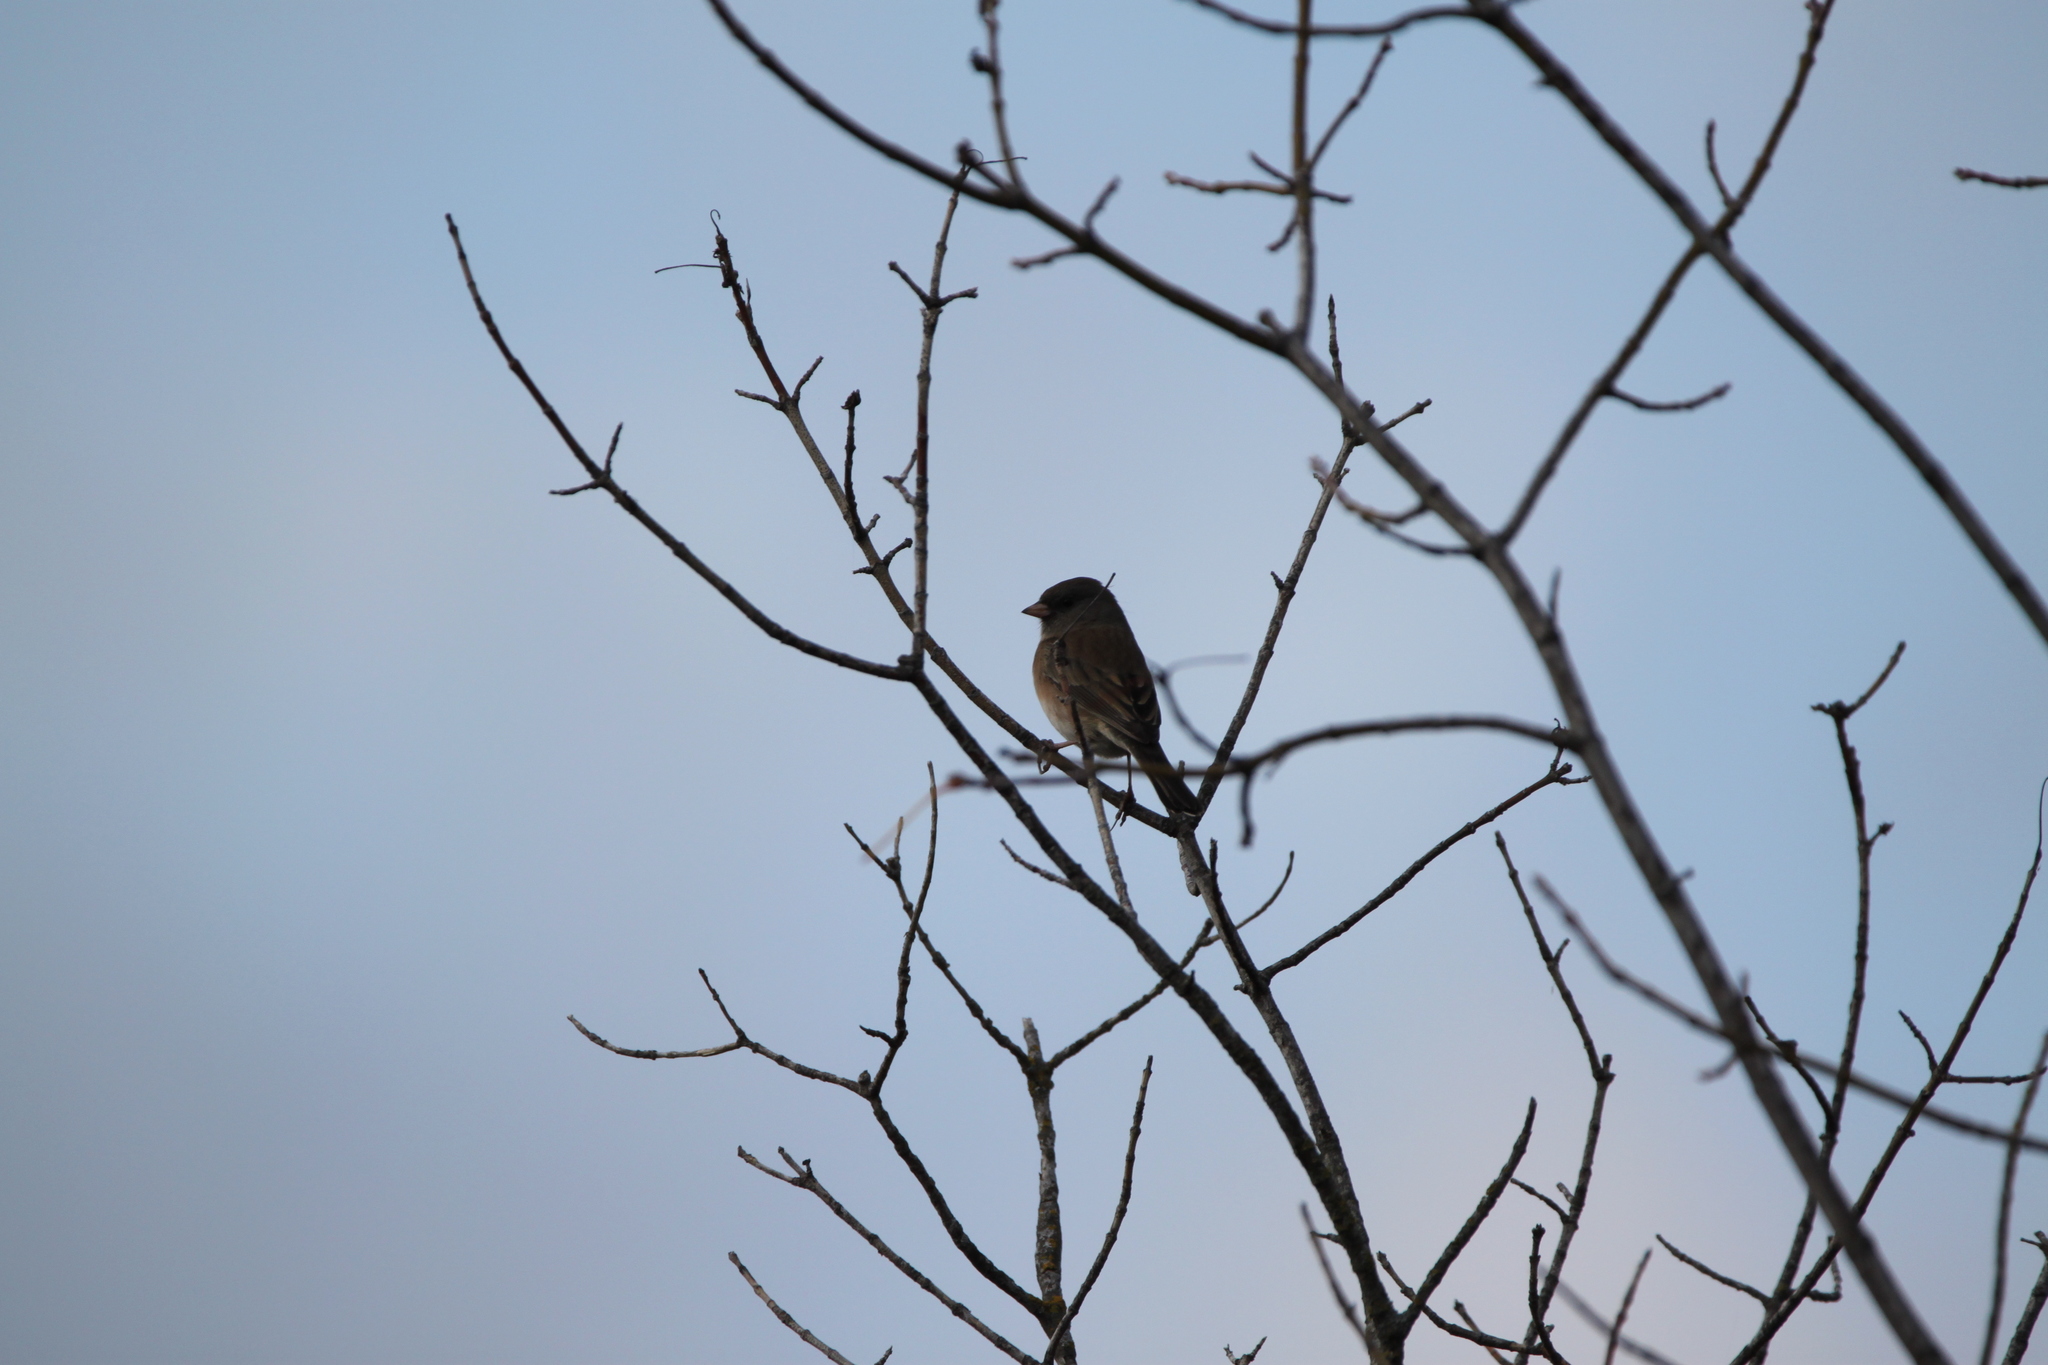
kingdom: Animalia
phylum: Chordata
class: Aves
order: Passeriformes
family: Passerellidae
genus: Junco
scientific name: Junco hyemalis
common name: Dark-eyed junco
